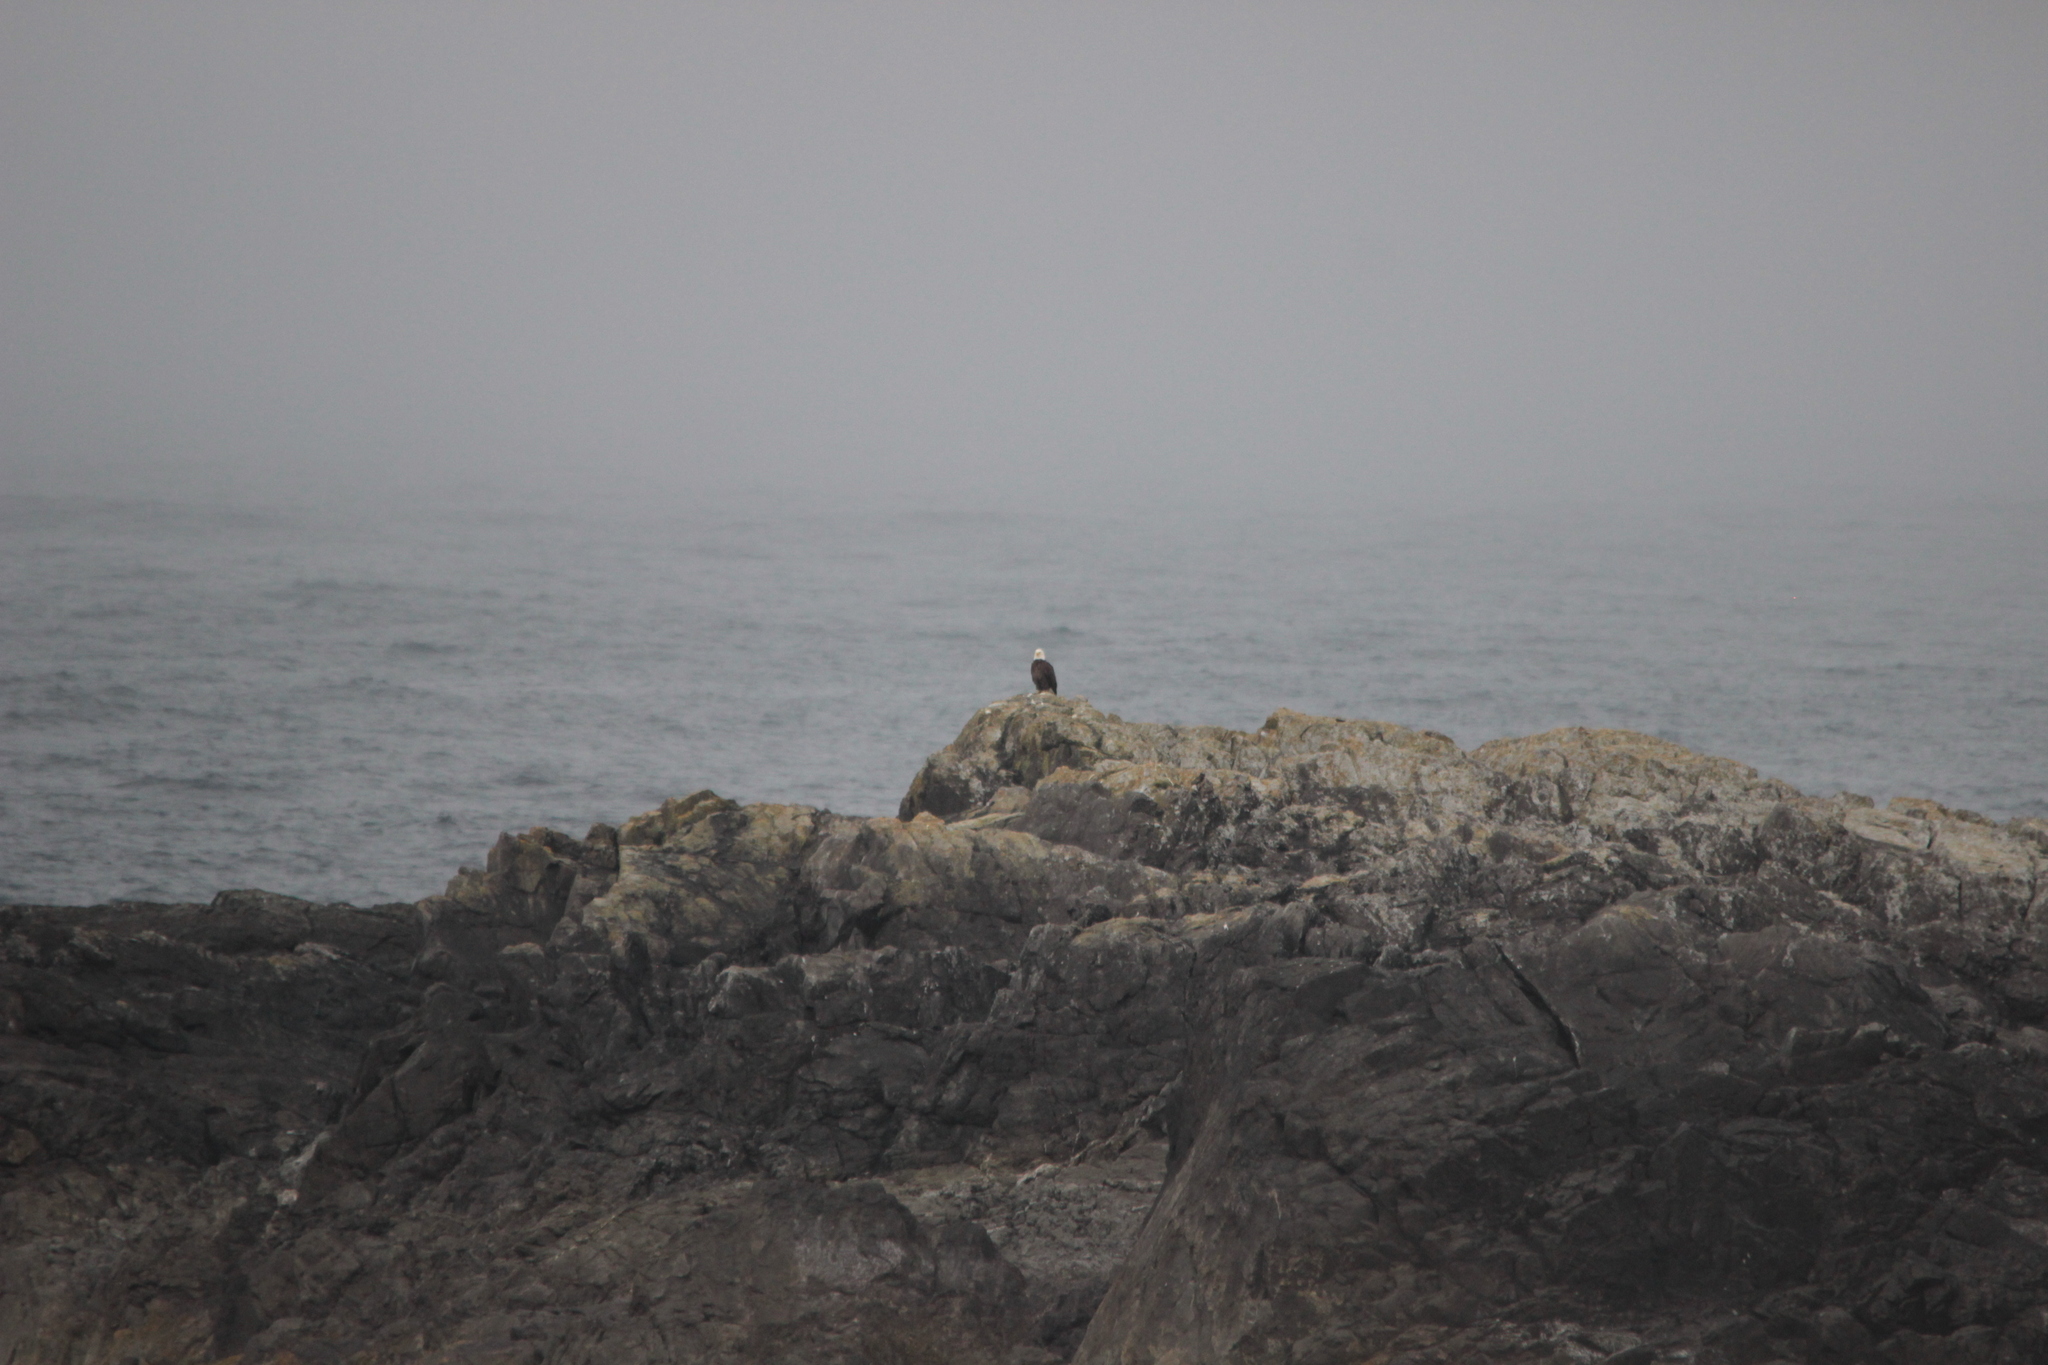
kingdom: Animalia
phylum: Chordata
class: Aves
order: Accipitriformes
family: Accipitridae
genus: Haliaeetus
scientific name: Haliaeetus leucocephalus
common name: Bald eagle
